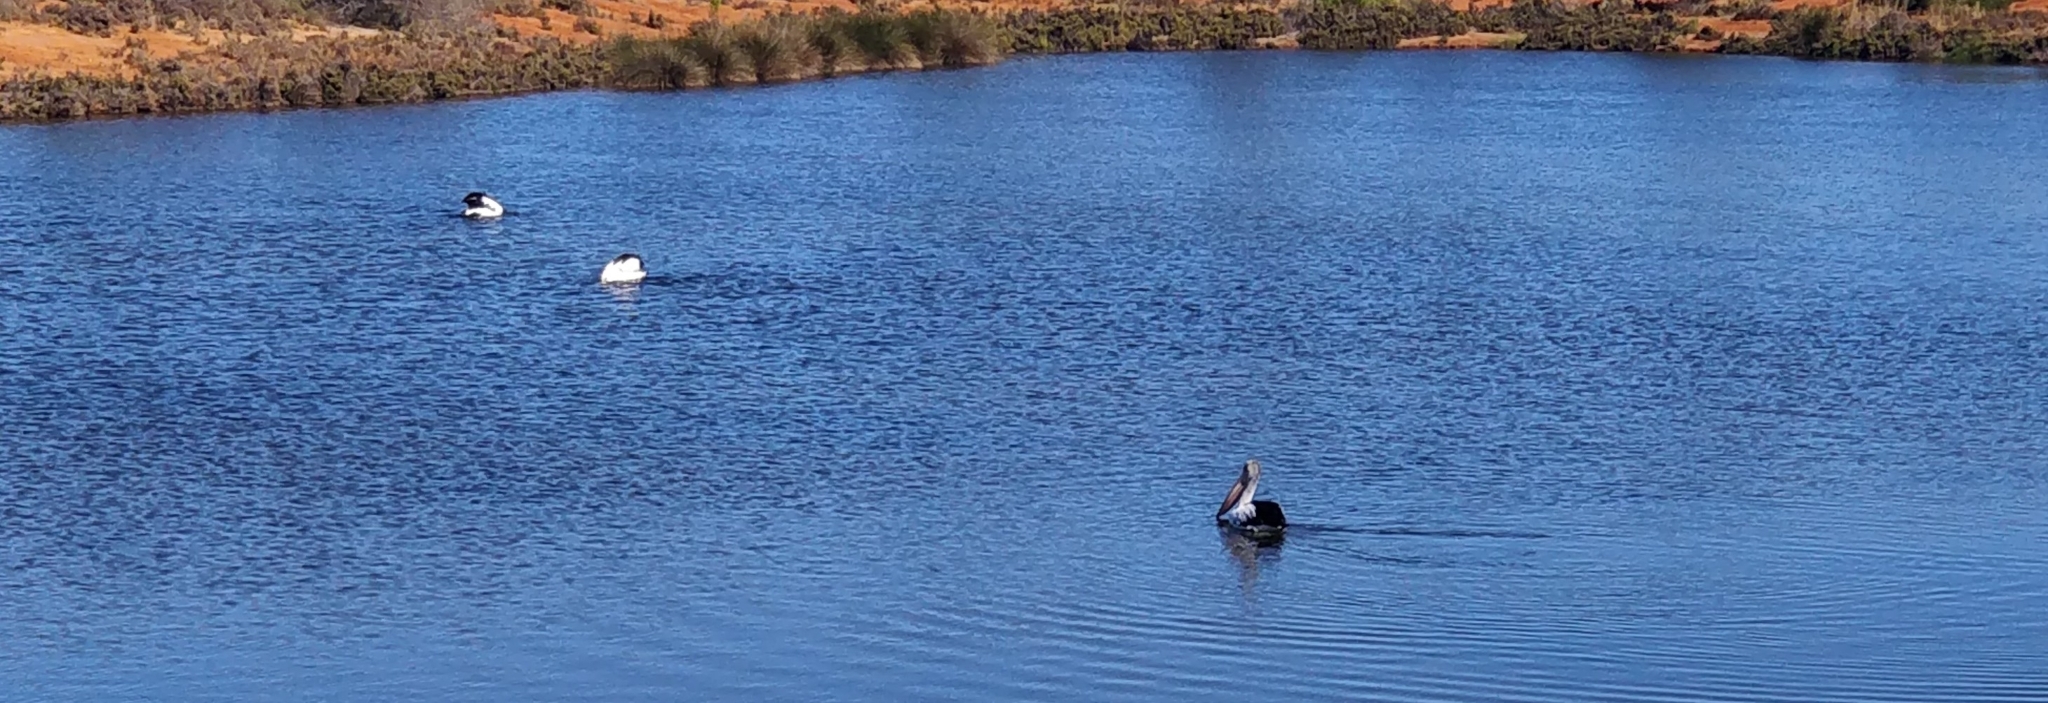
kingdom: Animalia
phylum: Chordata
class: Aves
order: Pelecaniformes
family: Pelecanidae
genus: Pelecanus
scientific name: Pelecanus conspicillatus
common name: Australian pelican
